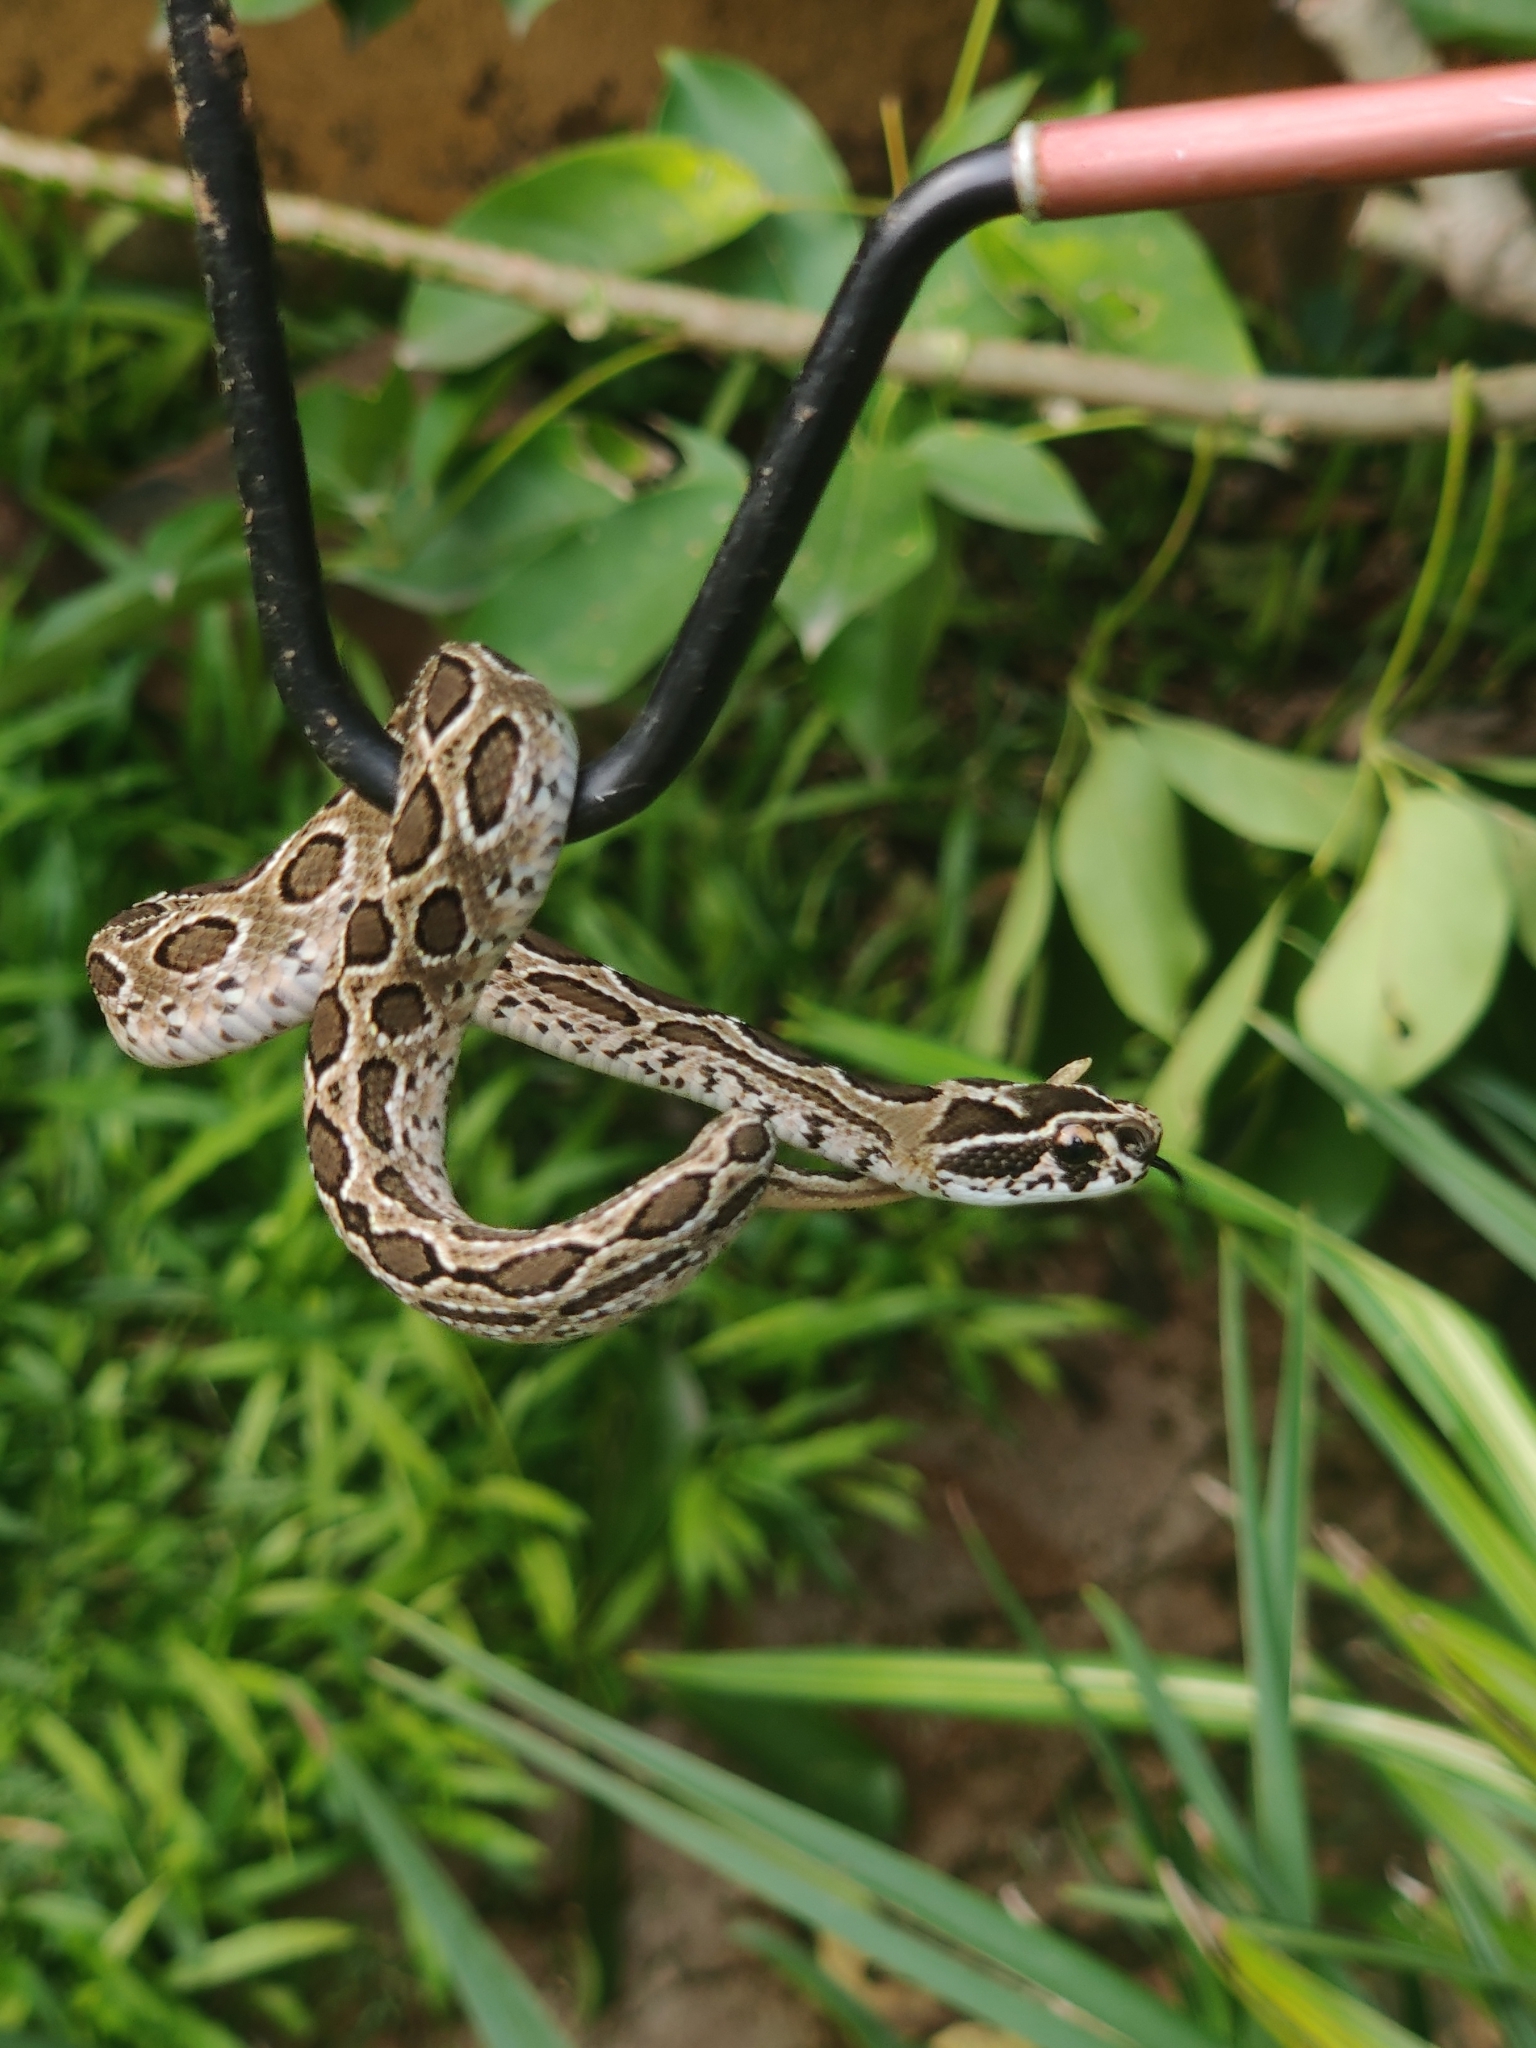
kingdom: Animalia
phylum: Chordata
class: Squamata
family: Viperidae
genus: Daboia
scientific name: Daboia russelii
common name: Western russel’s viper
